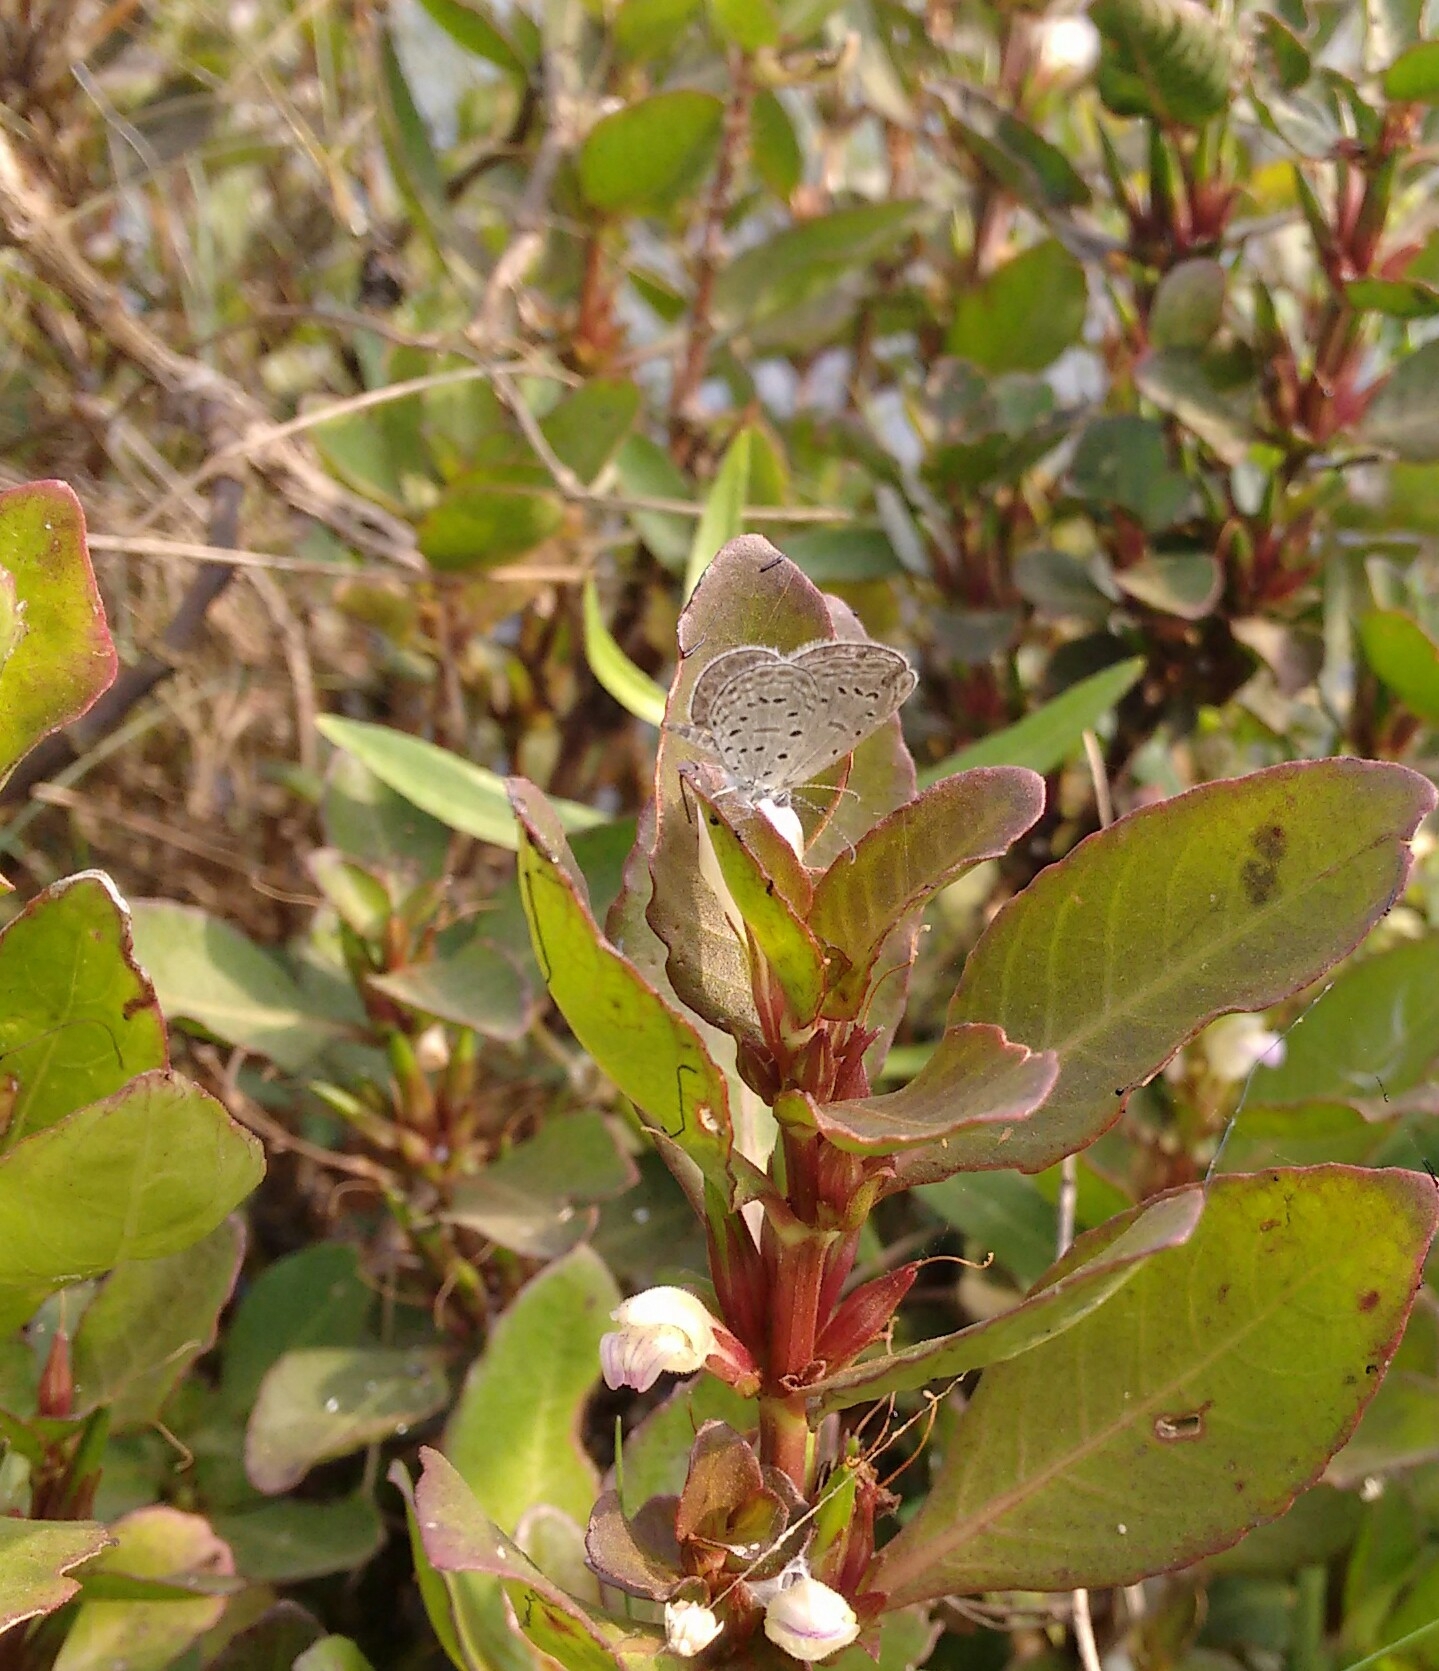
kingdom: Animalia
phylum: Arthropoda
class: Insecta
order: Lepidoptera
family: Lycaenidae
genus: Zizula
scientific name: Zizula hylax
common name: Gaika blue
